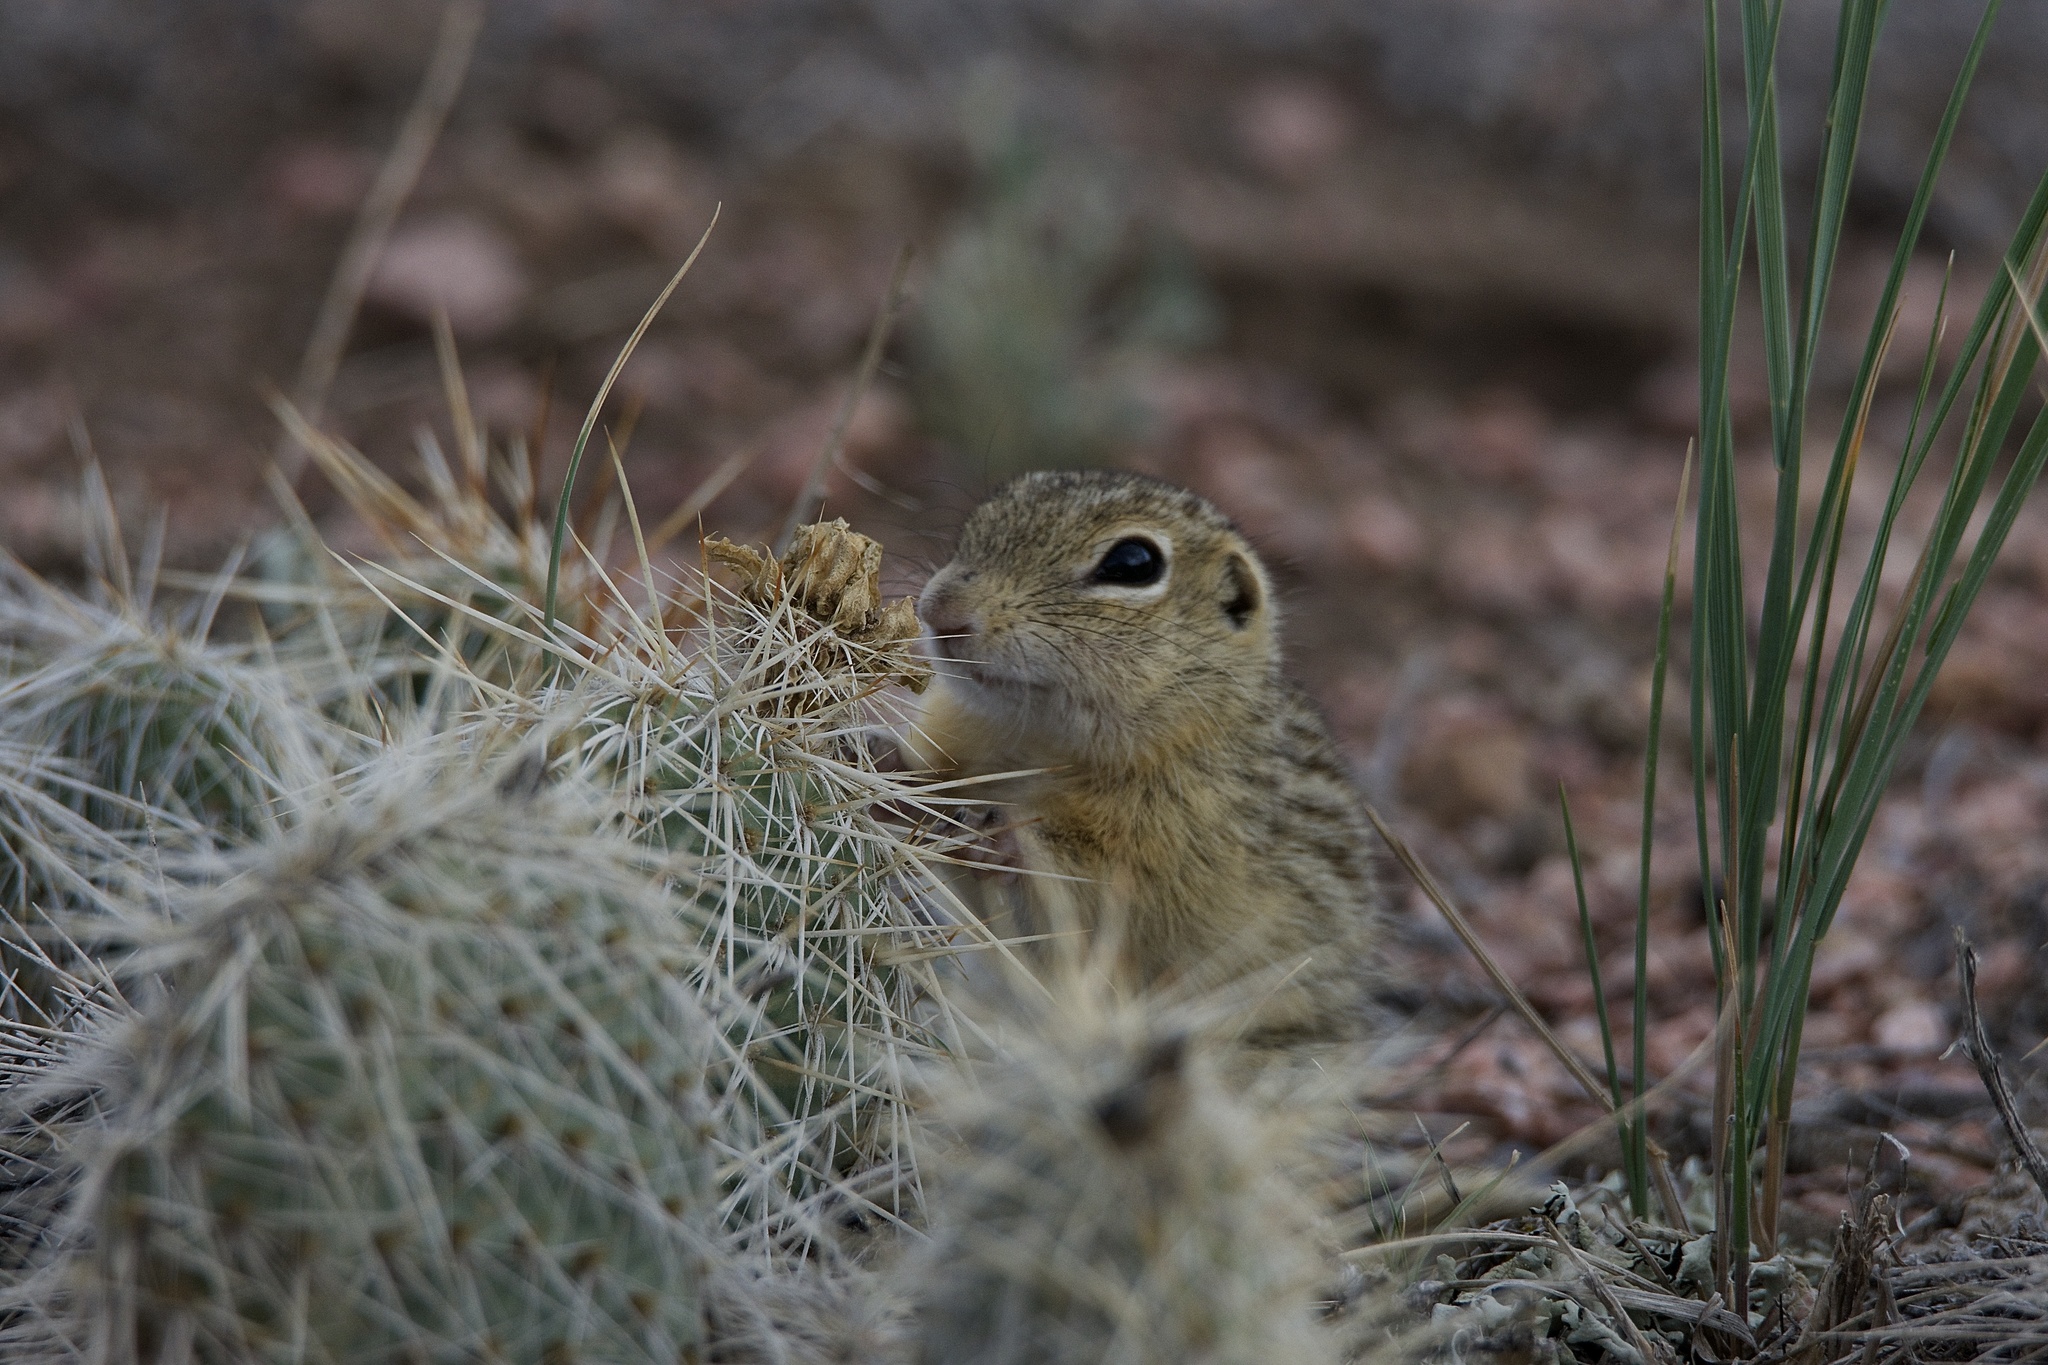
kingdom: Animalia
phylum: Chordata
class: Mammalia
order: Rodentia
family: Sciuridae
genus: Ictidomys
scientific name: Ictidomys tridecemlineatus
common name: Thirteen-lined ground squirrel
